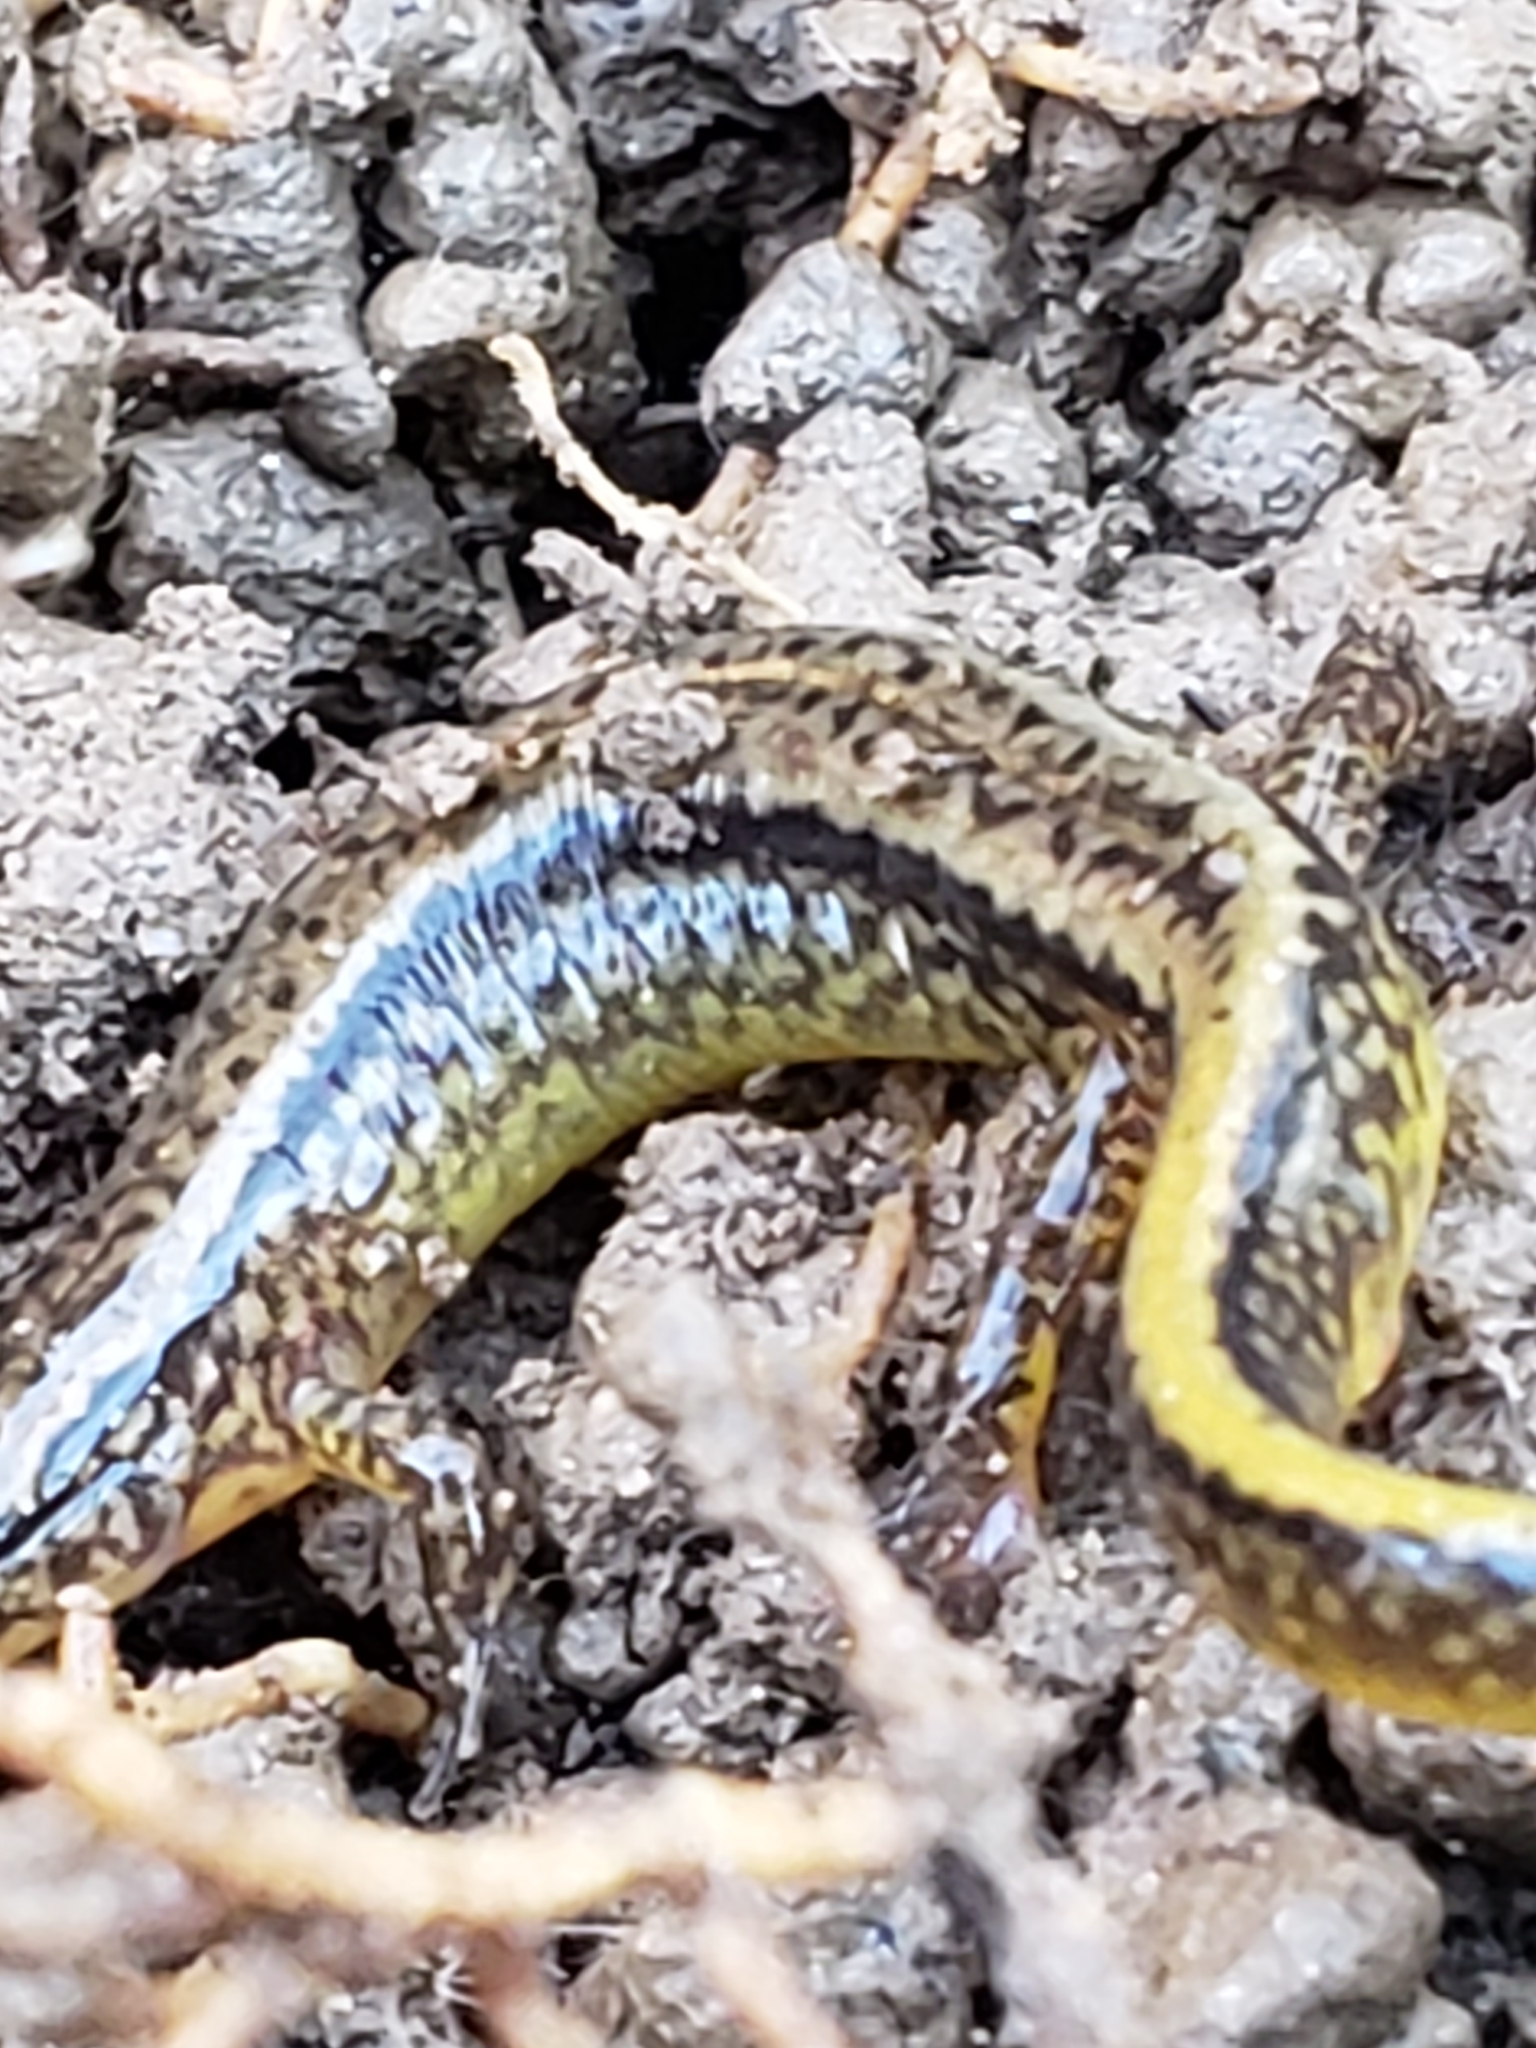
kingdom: Animalia
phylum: Chordata
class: Amphibia
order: Caudata
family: Plethodontidae
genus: Eurycea
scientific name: Eurycea bislineata
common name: Northern two-lined salamander
